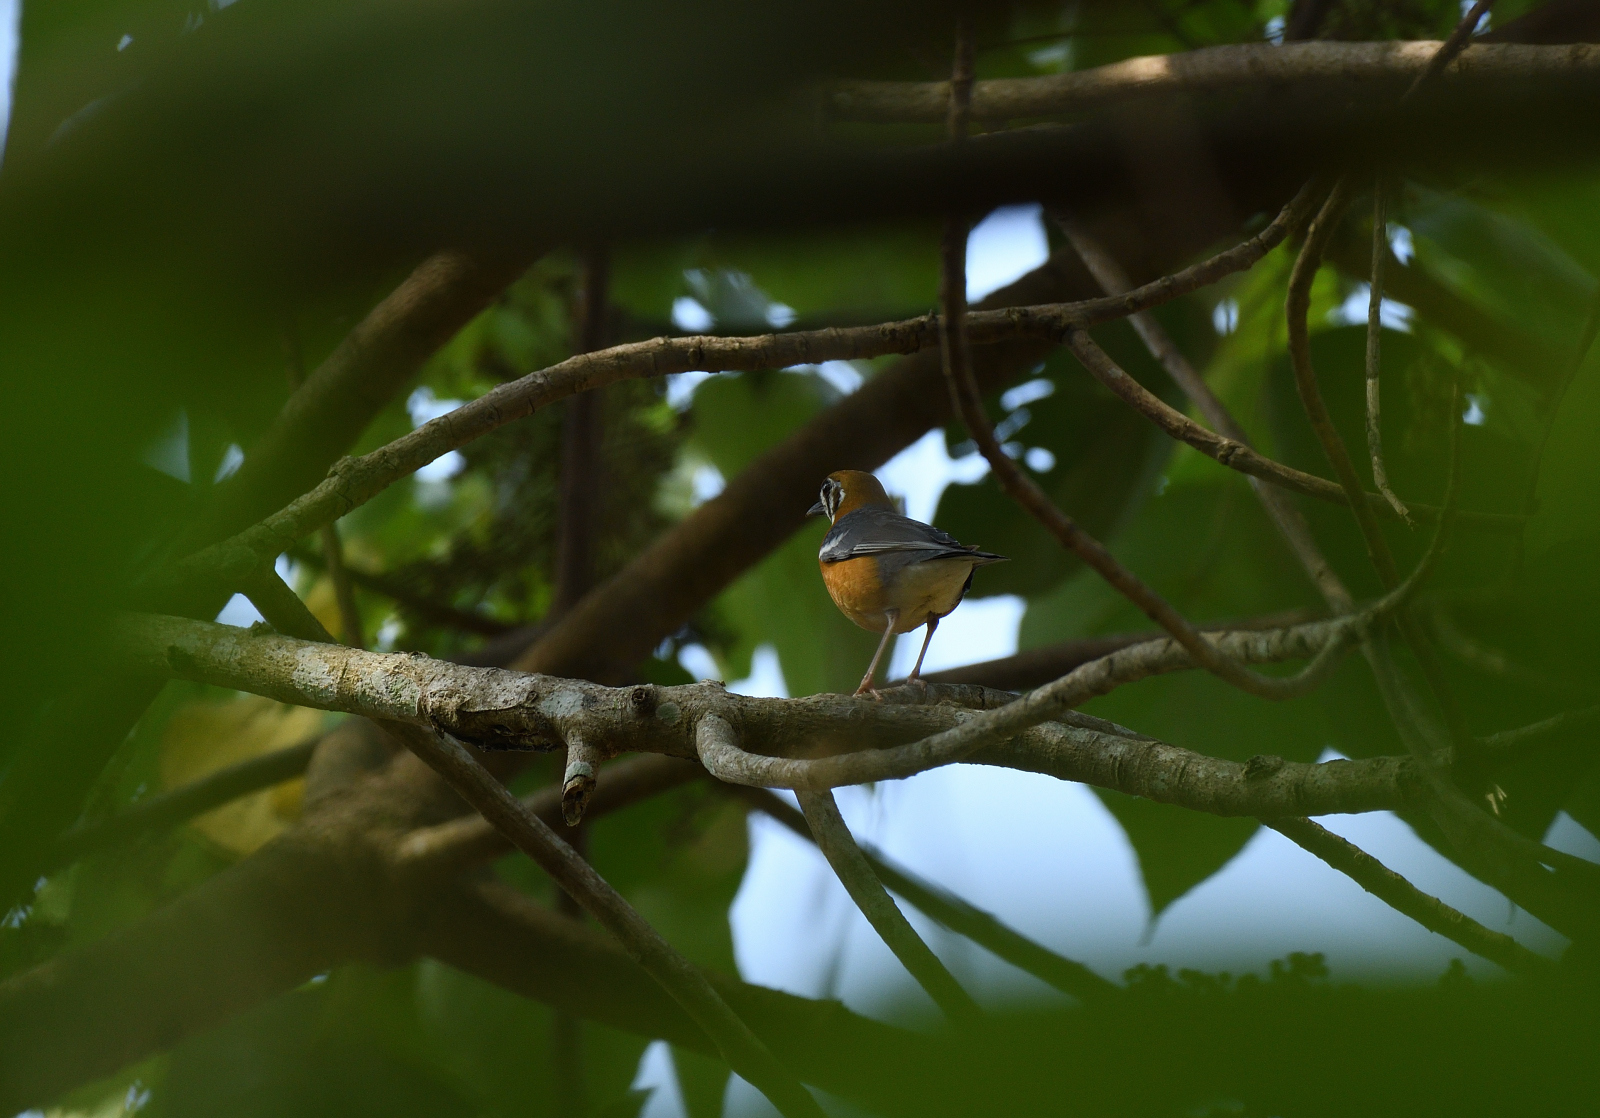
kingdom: Animalia
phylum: Chordata
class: Aves
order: Passeriformes
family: Turdidae
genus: Geokichla
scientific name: Geokichla citrina
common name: Orange-headed thrush
